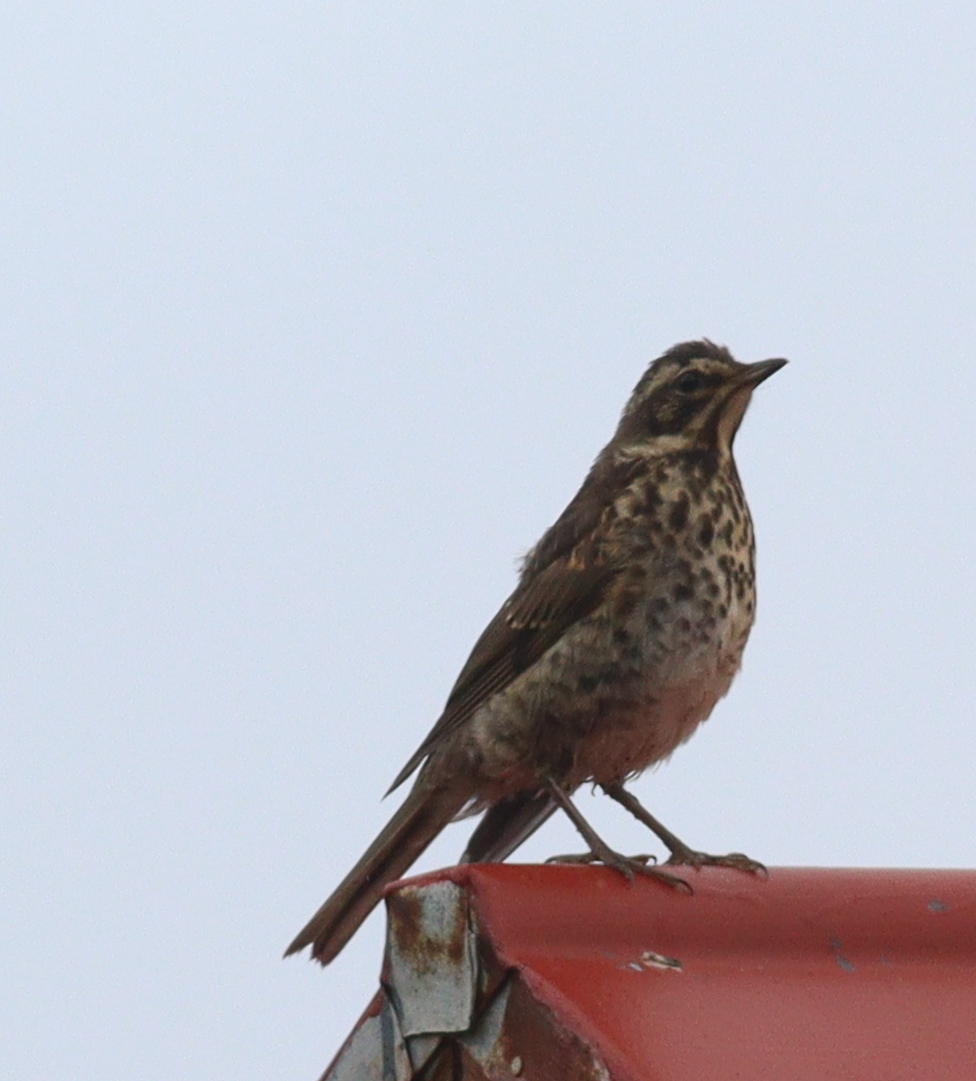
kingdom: Animalia
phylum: Chordata
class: Aves
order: Passeriformes
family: Turdidae
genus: Turdus
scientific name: Turdus iliacus
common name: Redwing
